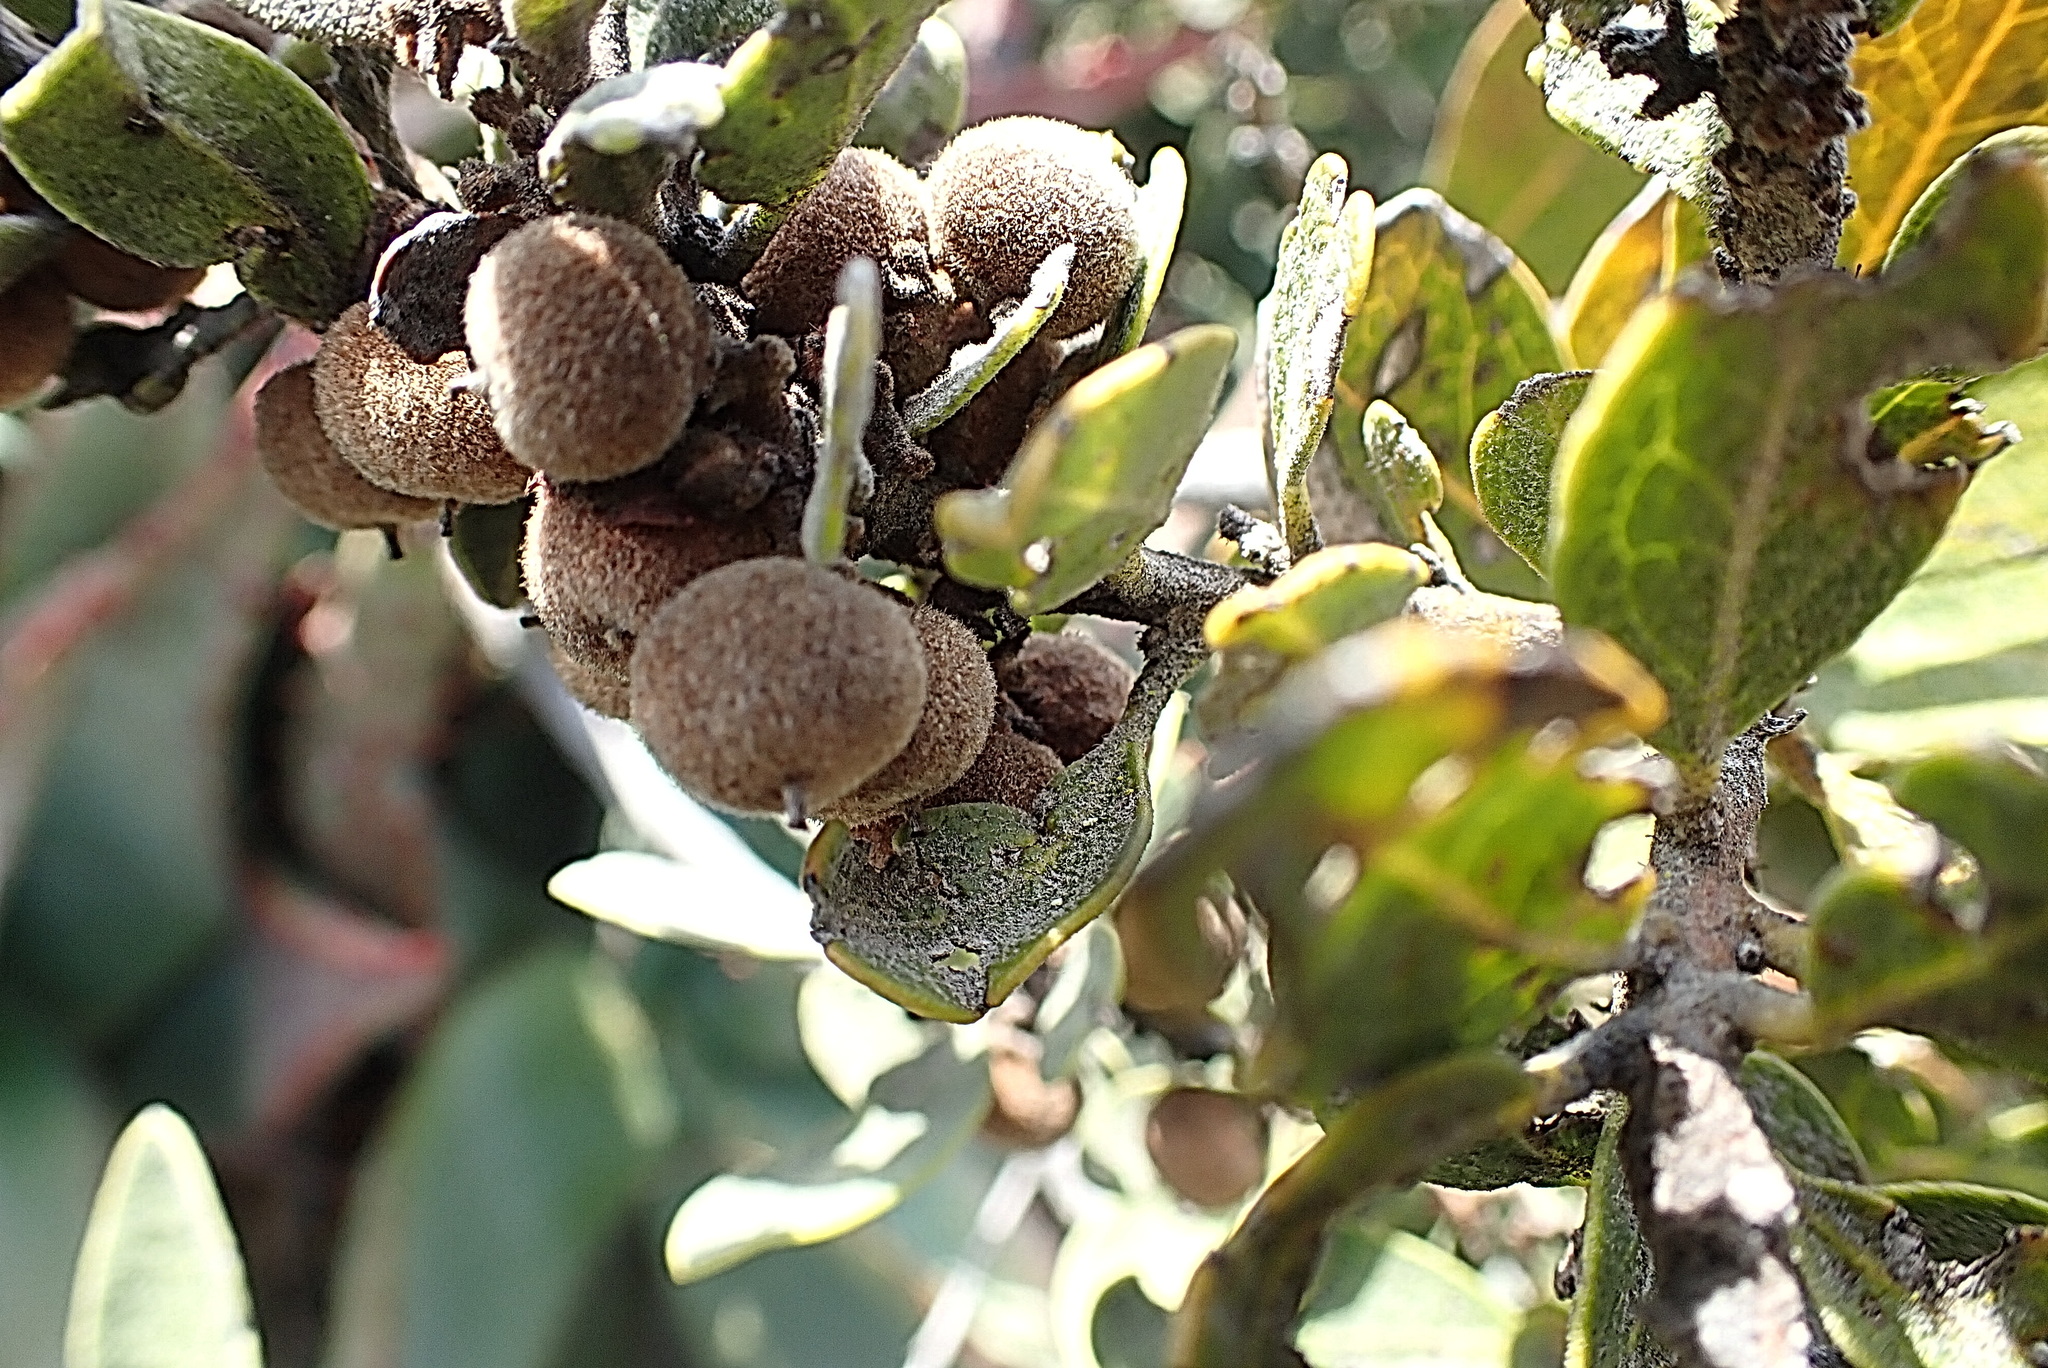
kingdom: Plantae
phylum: Tracheophyta
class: Magnoliopsida
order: Ericales
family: Ebenaceae
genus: Euclea
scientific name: Euclea polyandra
